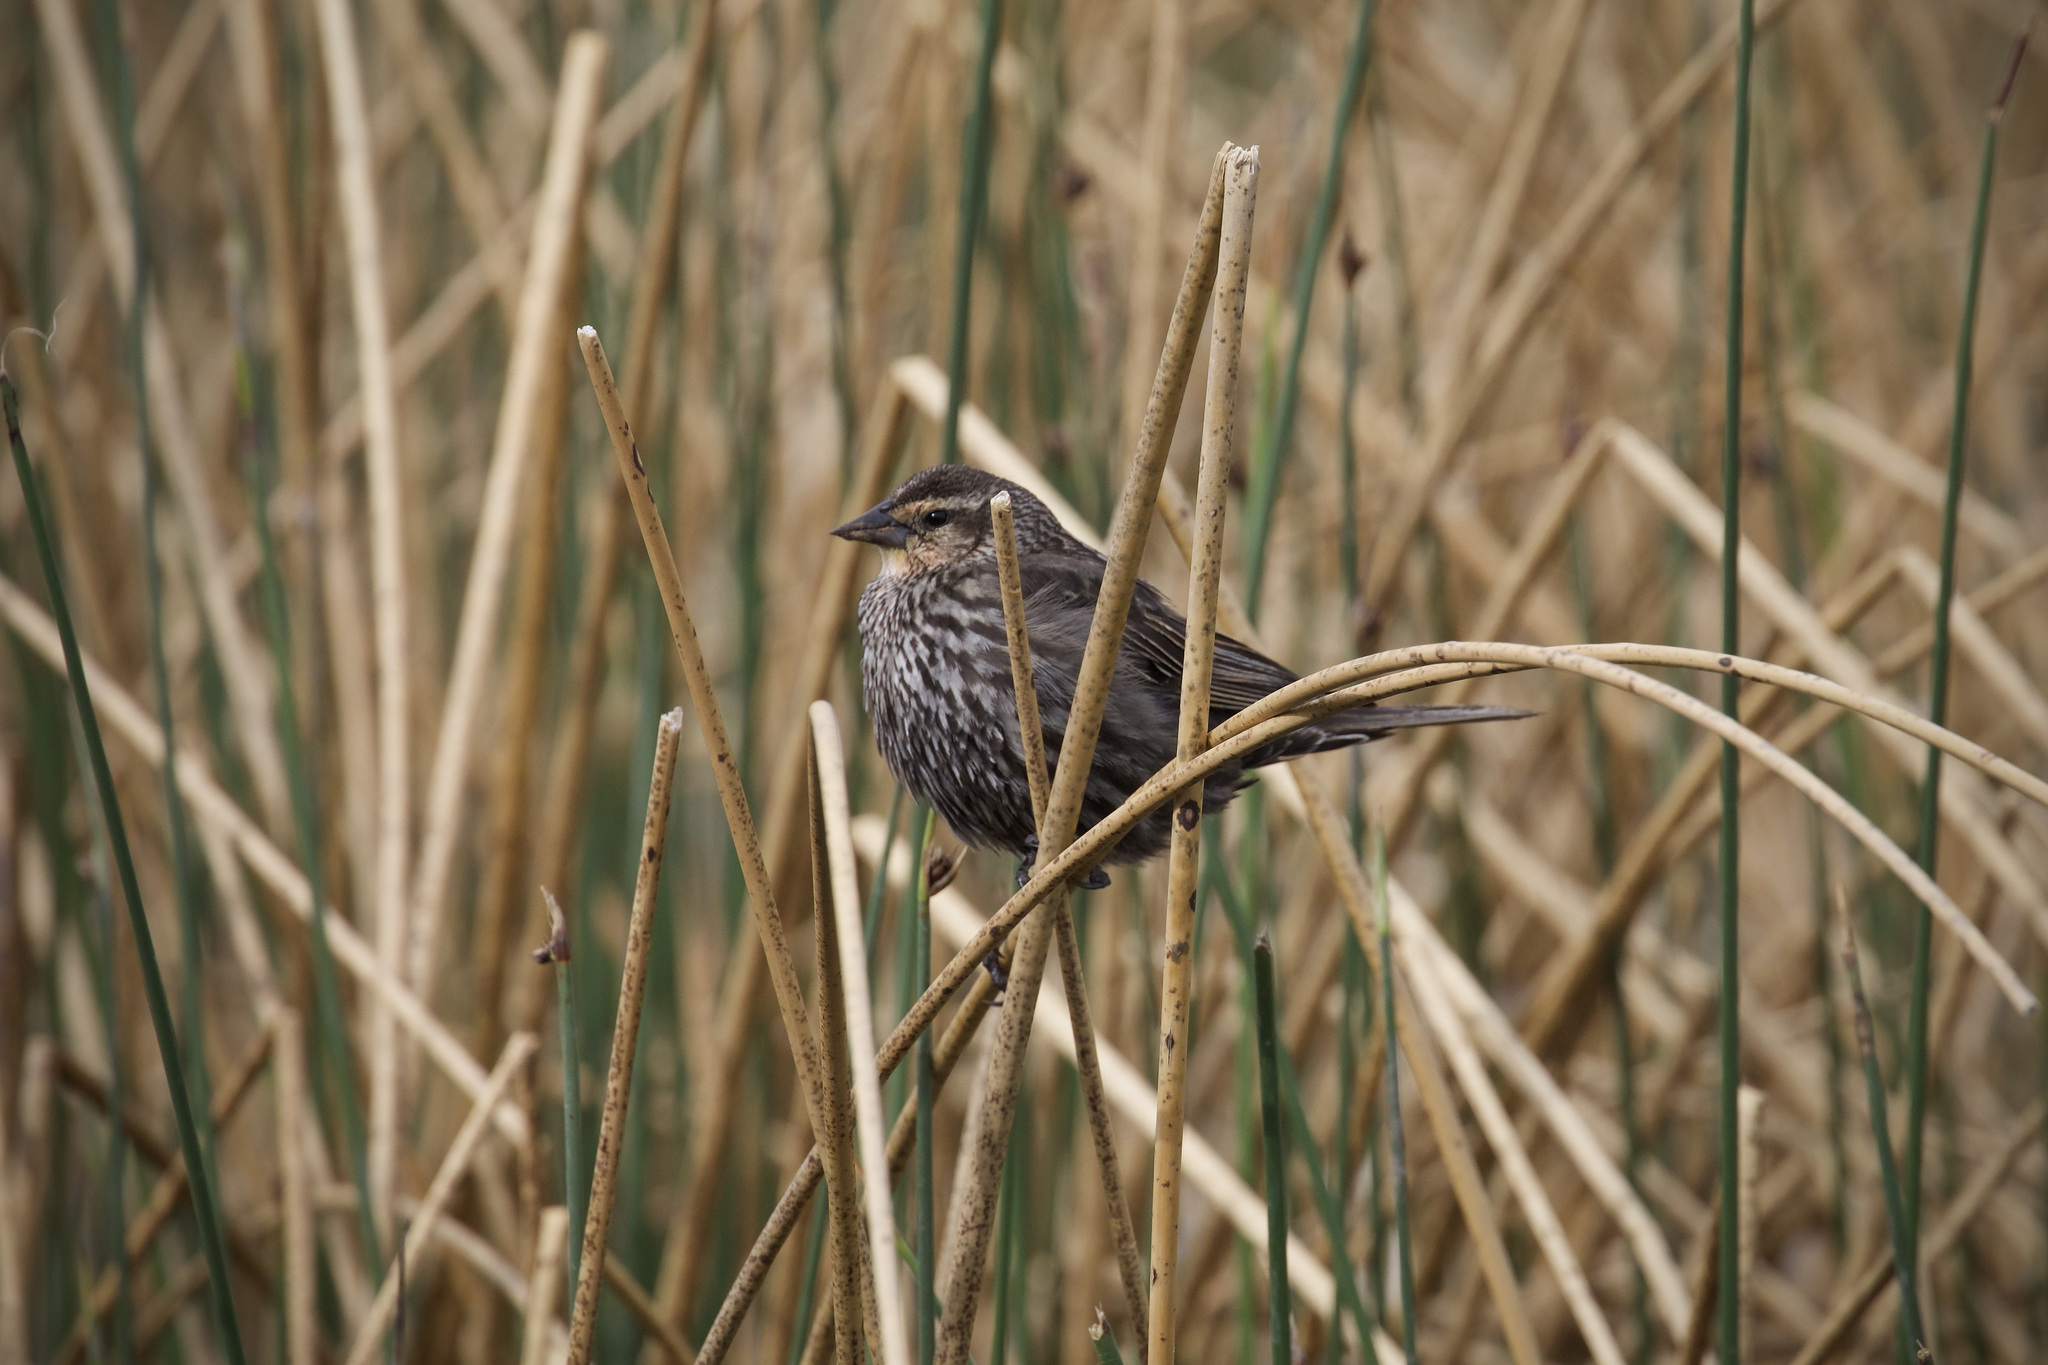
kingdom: Animalia
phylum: Chordata
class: Aves
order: Passeriformes
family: Icteridae
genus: Agelaius
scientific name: Agelaius phoeniceus
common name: Red-winged blackbird
